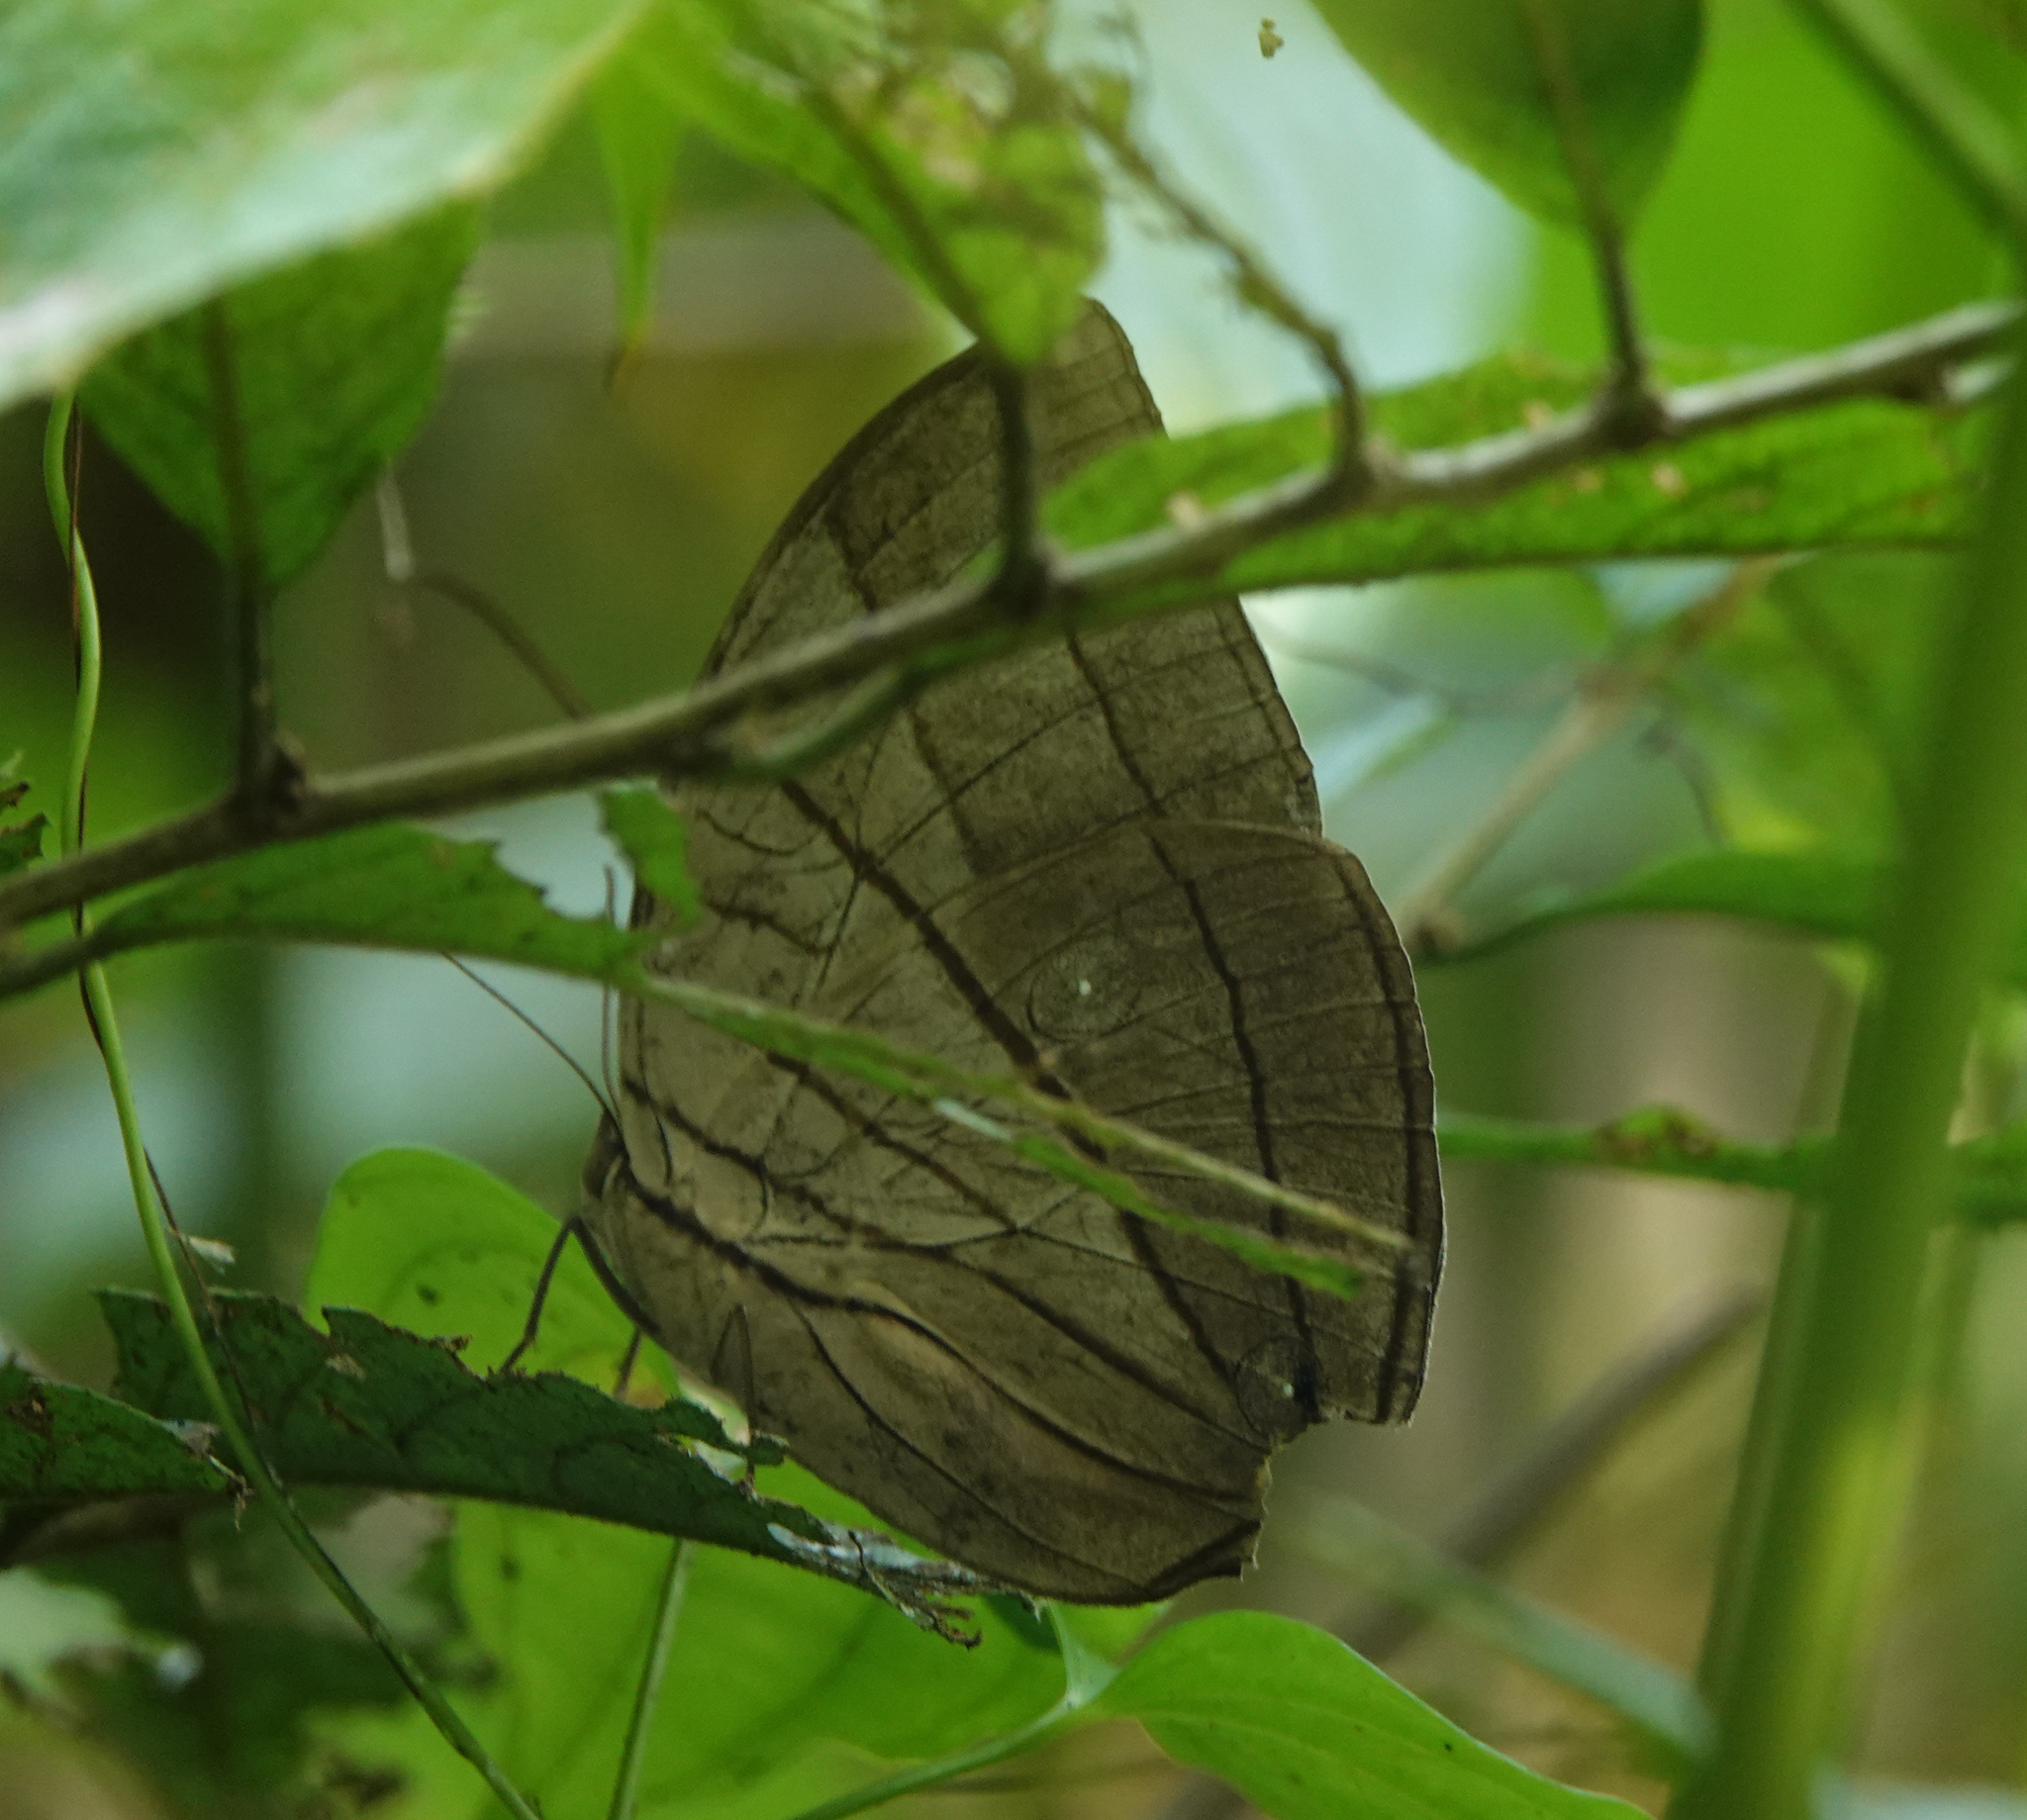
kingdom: Animalia
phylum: Arthropoda
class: Insecta
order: Lepidoptera
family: Nymphalidae
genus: Amathuxidia
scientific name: Amathuxidia amythaon
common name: Koh-i-noor
